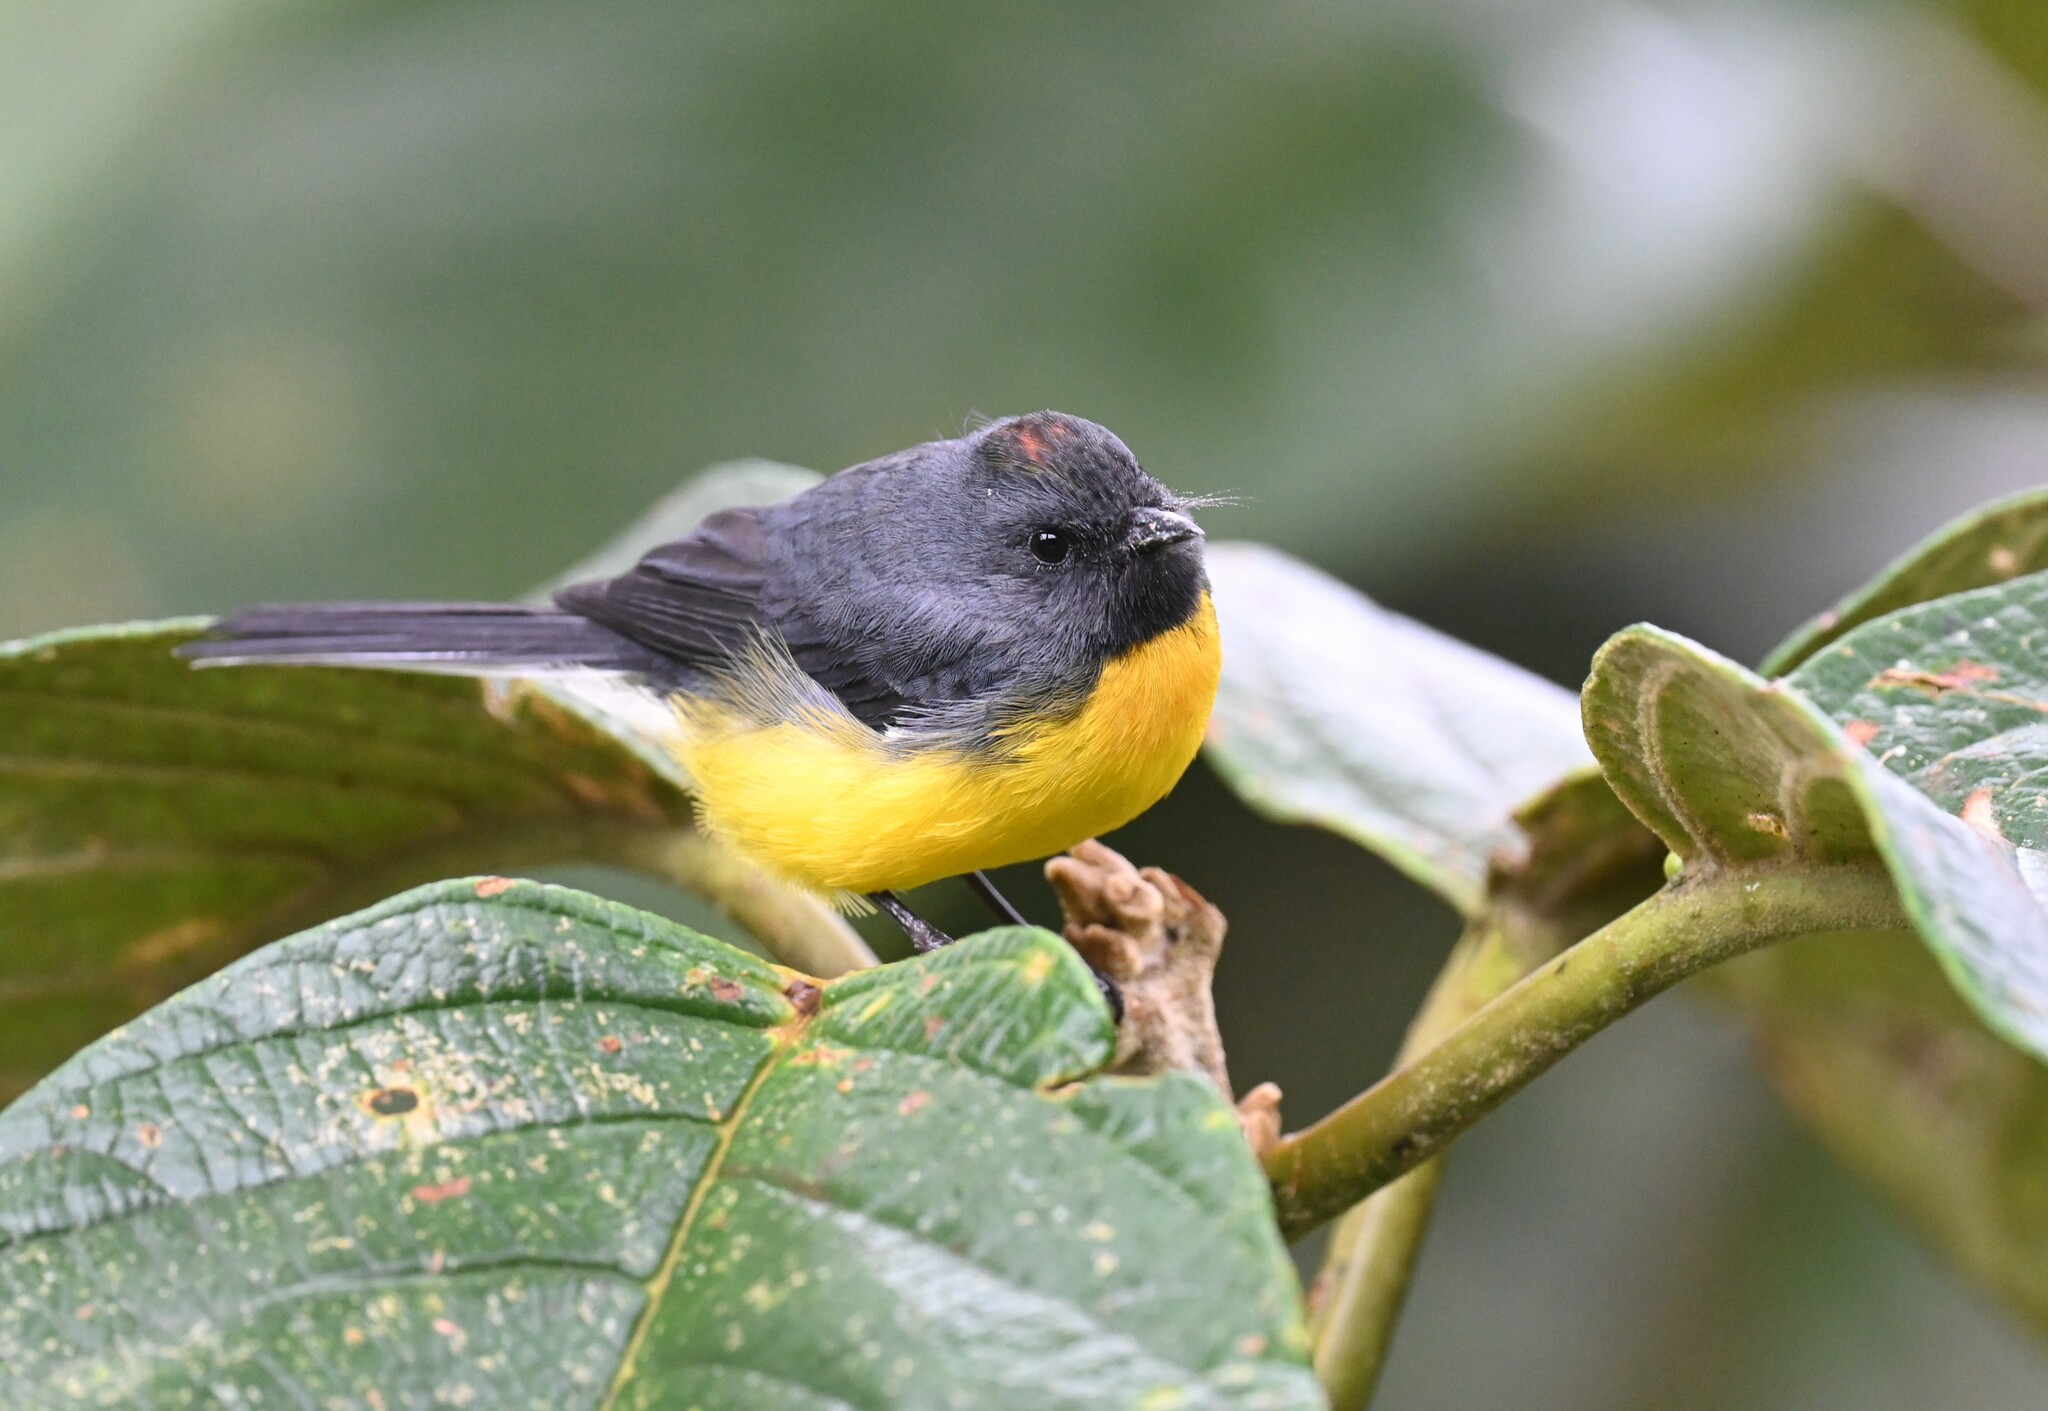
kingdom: Animalia
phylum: Chordata
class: Aves
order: Passeriformes
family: Parulidae
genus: Myioborus
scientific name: Myioborus miniatus
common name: Slate-throated redstart
